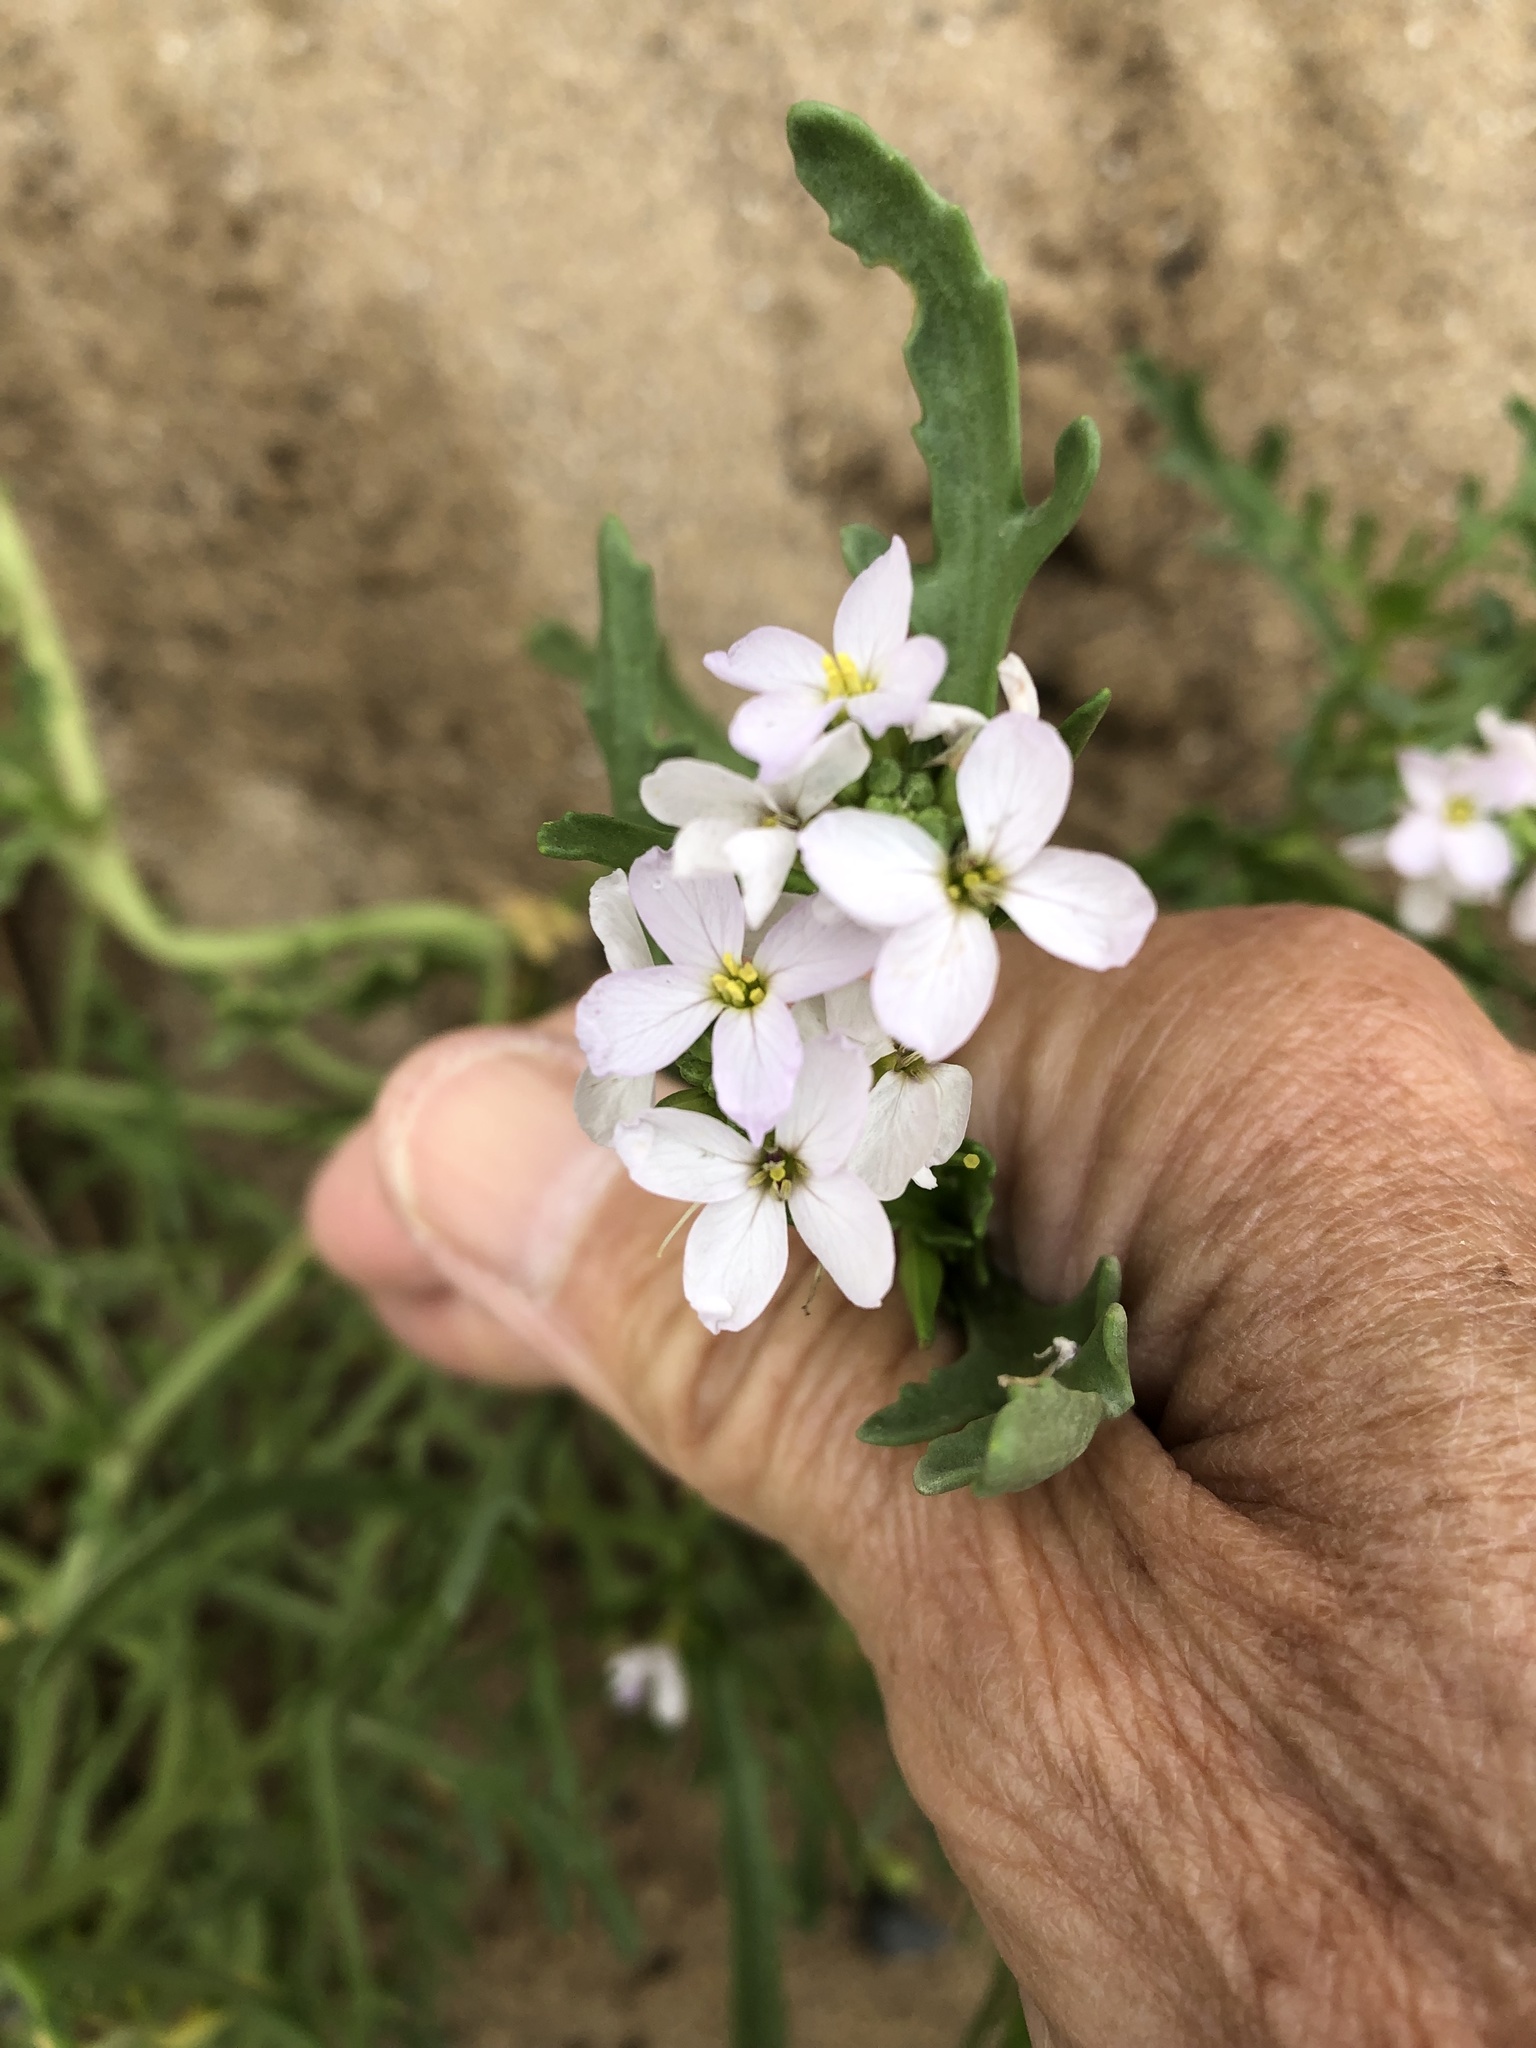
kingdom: Plantae
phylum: Tracheophyta
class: Magnoliopsida
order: Brassicales
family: Brassicaceae
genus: Cakile
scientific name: Cakile maritima
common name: Sea rocket
